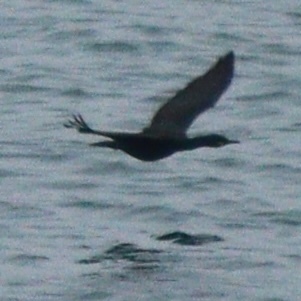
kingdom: Animalia
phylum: Chordata
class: Aves
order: Suliformes
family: Phalacrocoracidae
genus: Phalacrocorax
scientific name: Phalacrocorax aristotelis
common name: European shag
